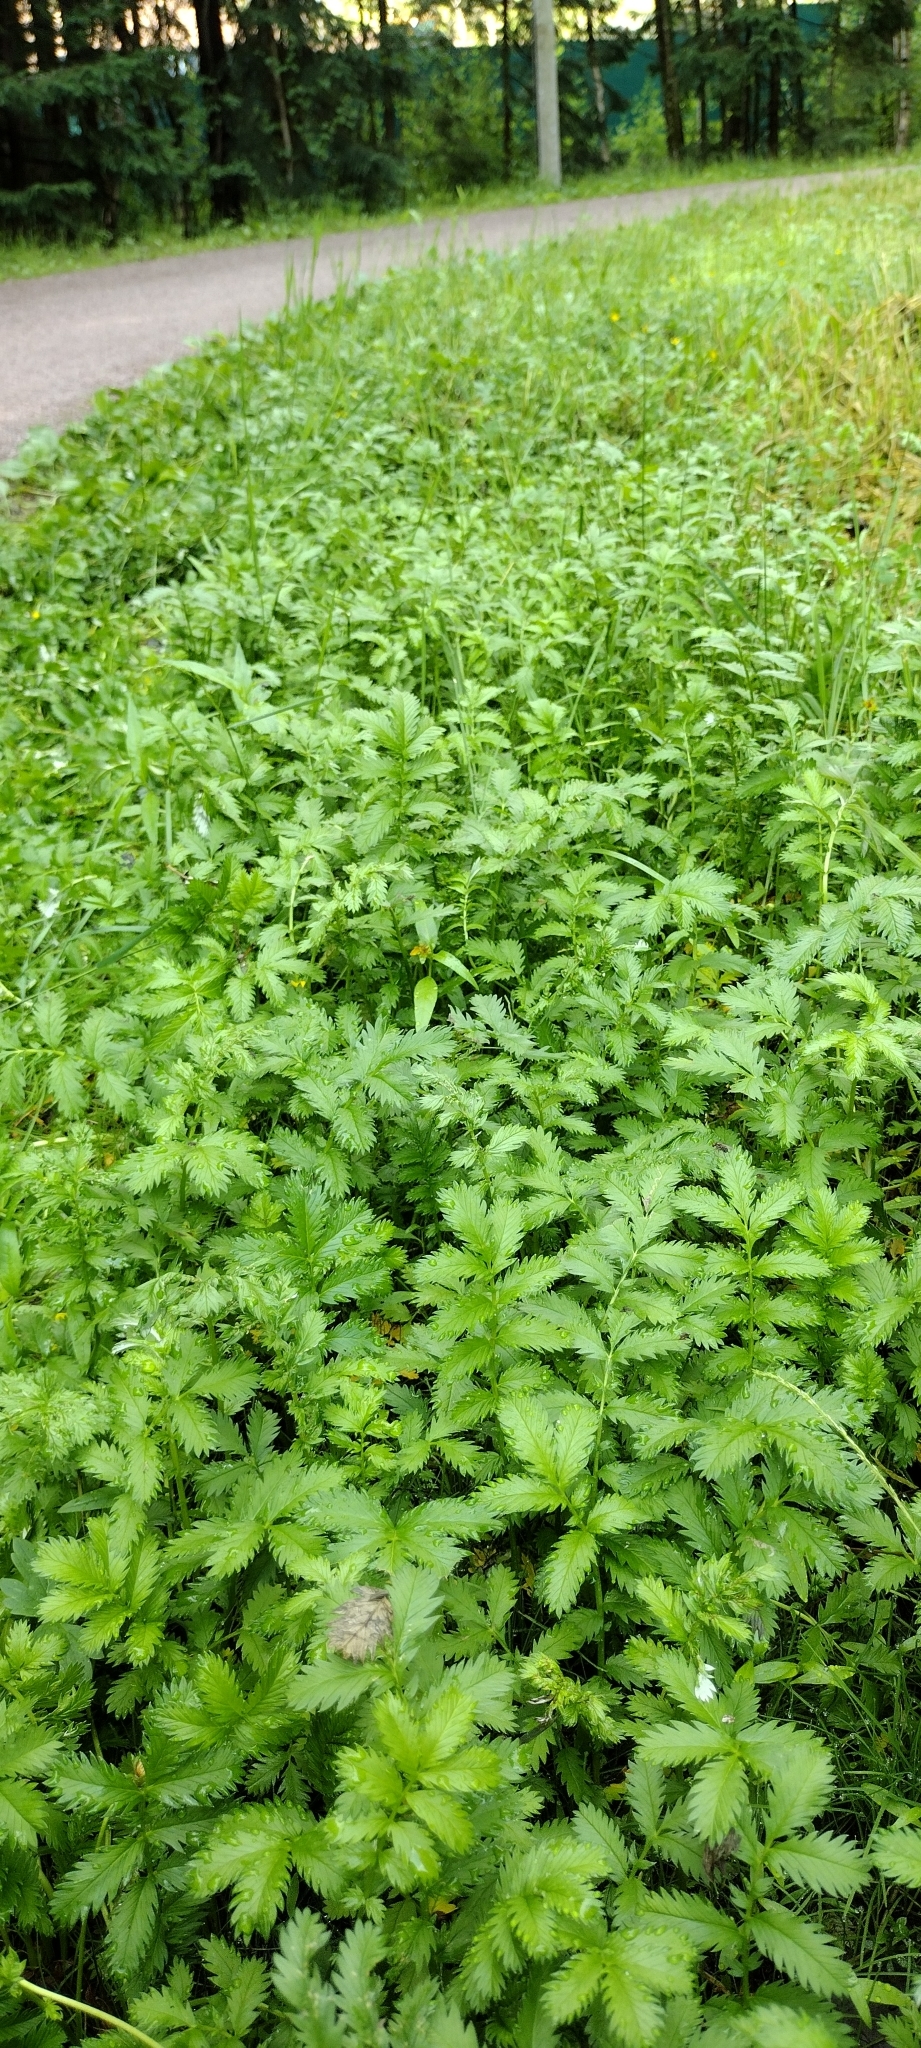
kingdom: Plantae
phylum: Tracheophyta
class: Magnoliopsida
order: Rosales
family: Rosaceae
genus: Argentina
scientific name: Argentina anserina
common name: Common silverweed
